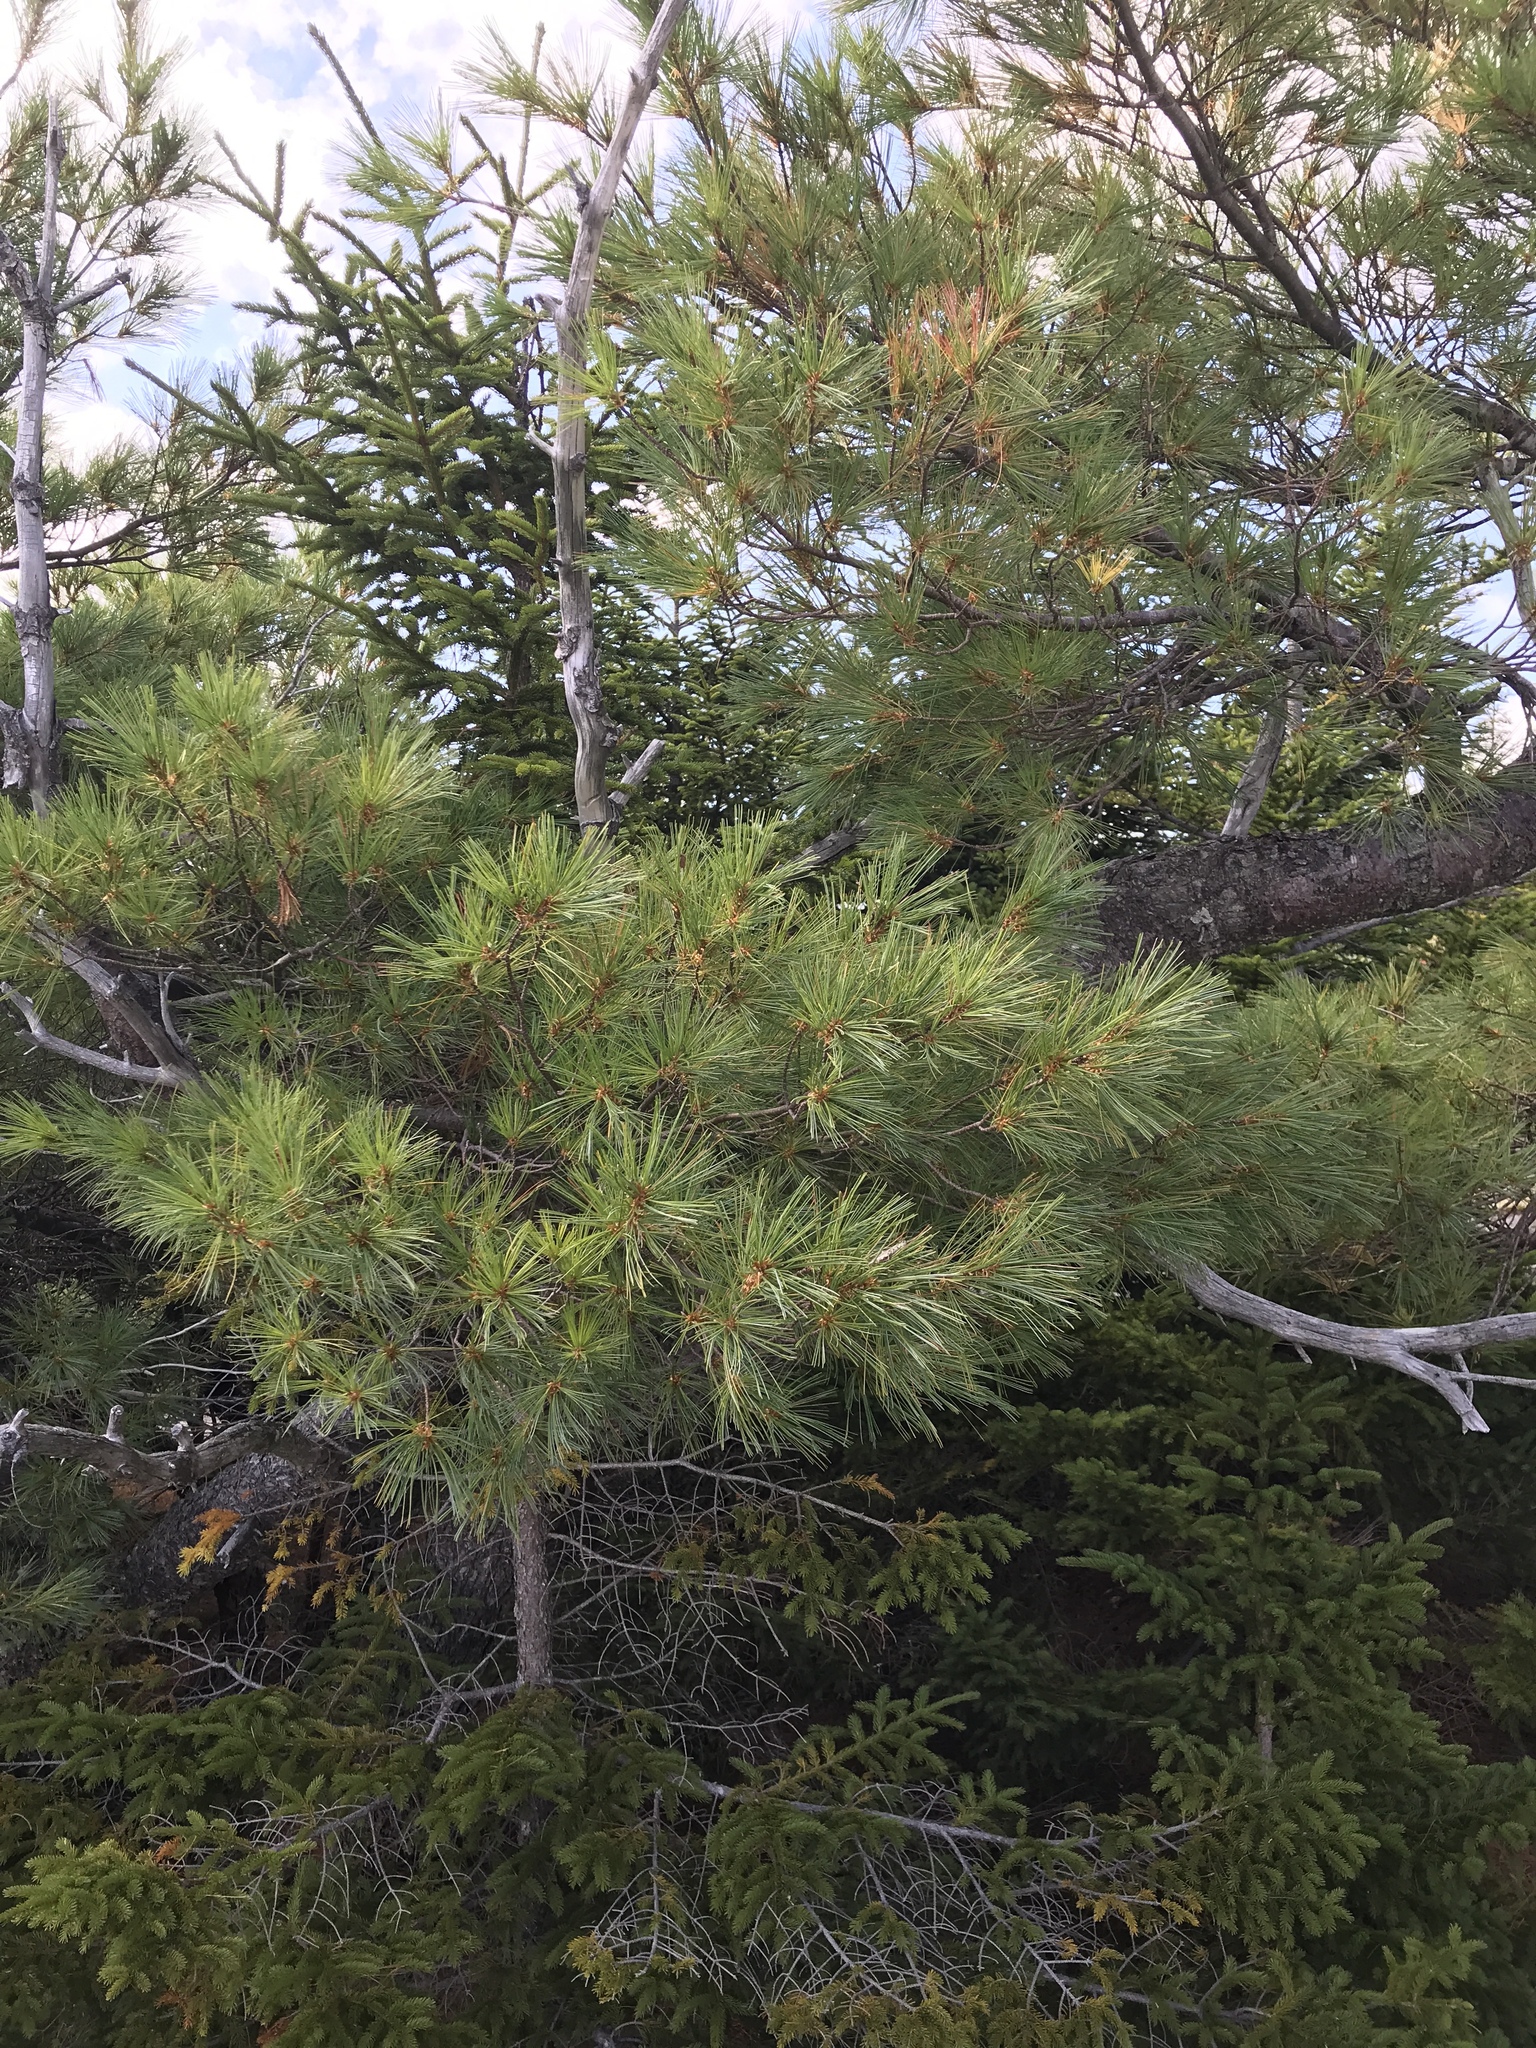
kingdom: Plantae
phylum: Tracheophyta
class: Pinopsida
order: Pinales
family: Pinaceae
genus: Pinus
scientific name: Pinus strobus
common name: Weymouth pine
